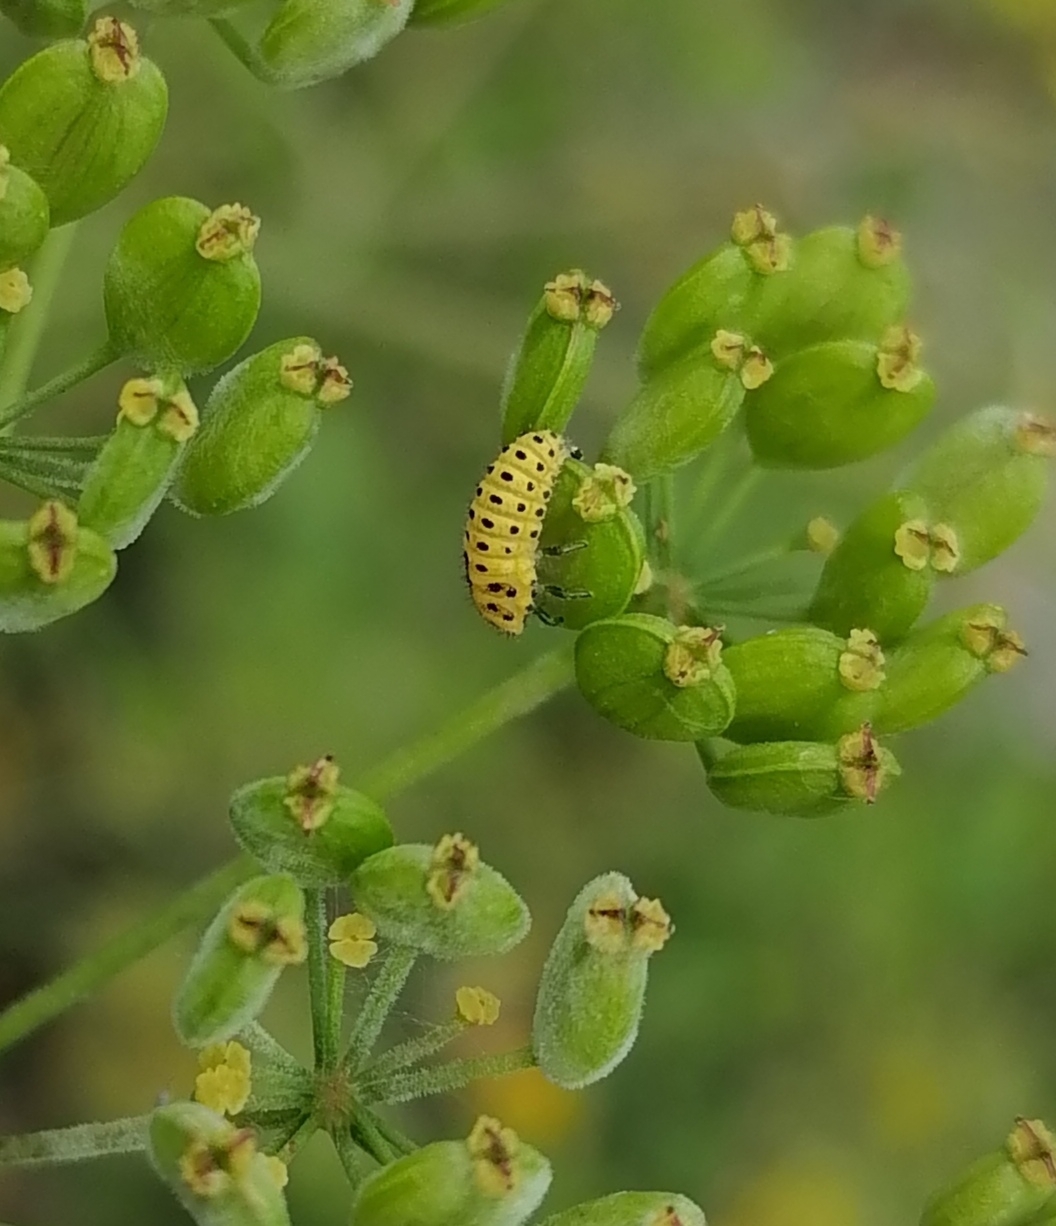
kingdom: Animalia
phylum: Arthropoda
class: Insecta
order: Coleoptera
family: Coccinellidae
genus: Psyllobora
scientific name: Psyllobora vigintiduopunctata
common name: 22-spot ladybird
